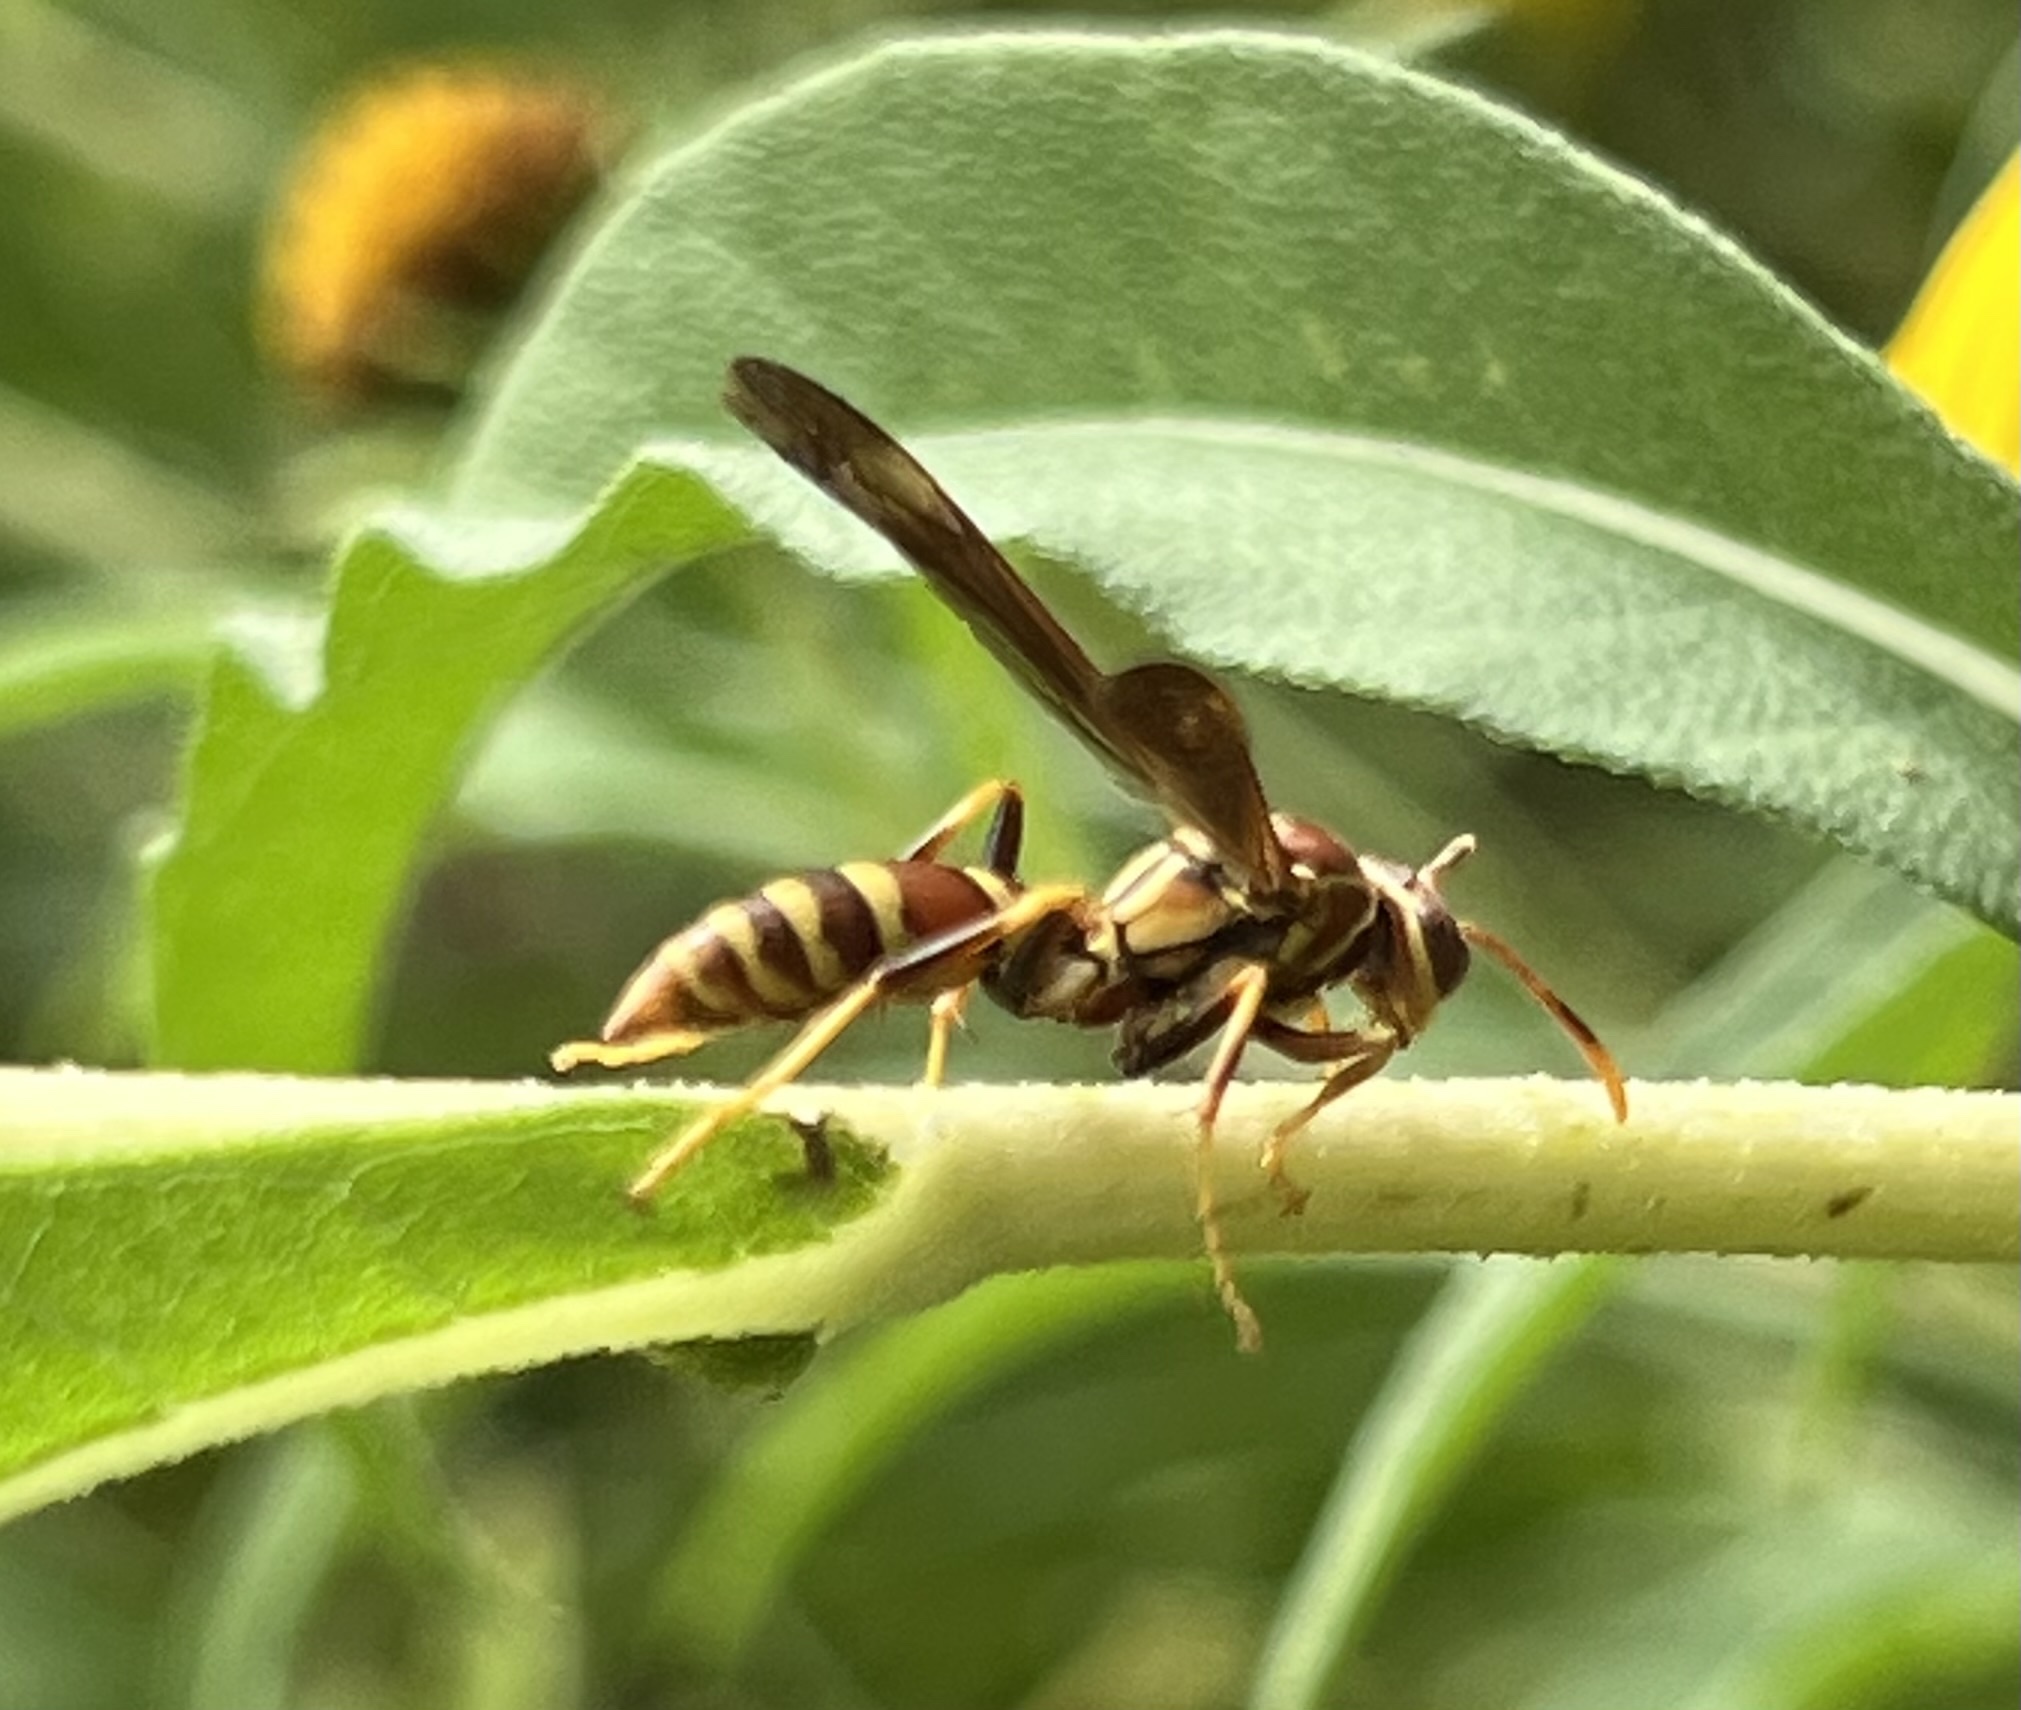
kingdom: Animalia
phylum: Arthropoda
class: Insecta
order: Hymenoptera
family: Eumenidae
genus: Polistes
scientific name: Polistes exclamans
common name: Paper wasp
